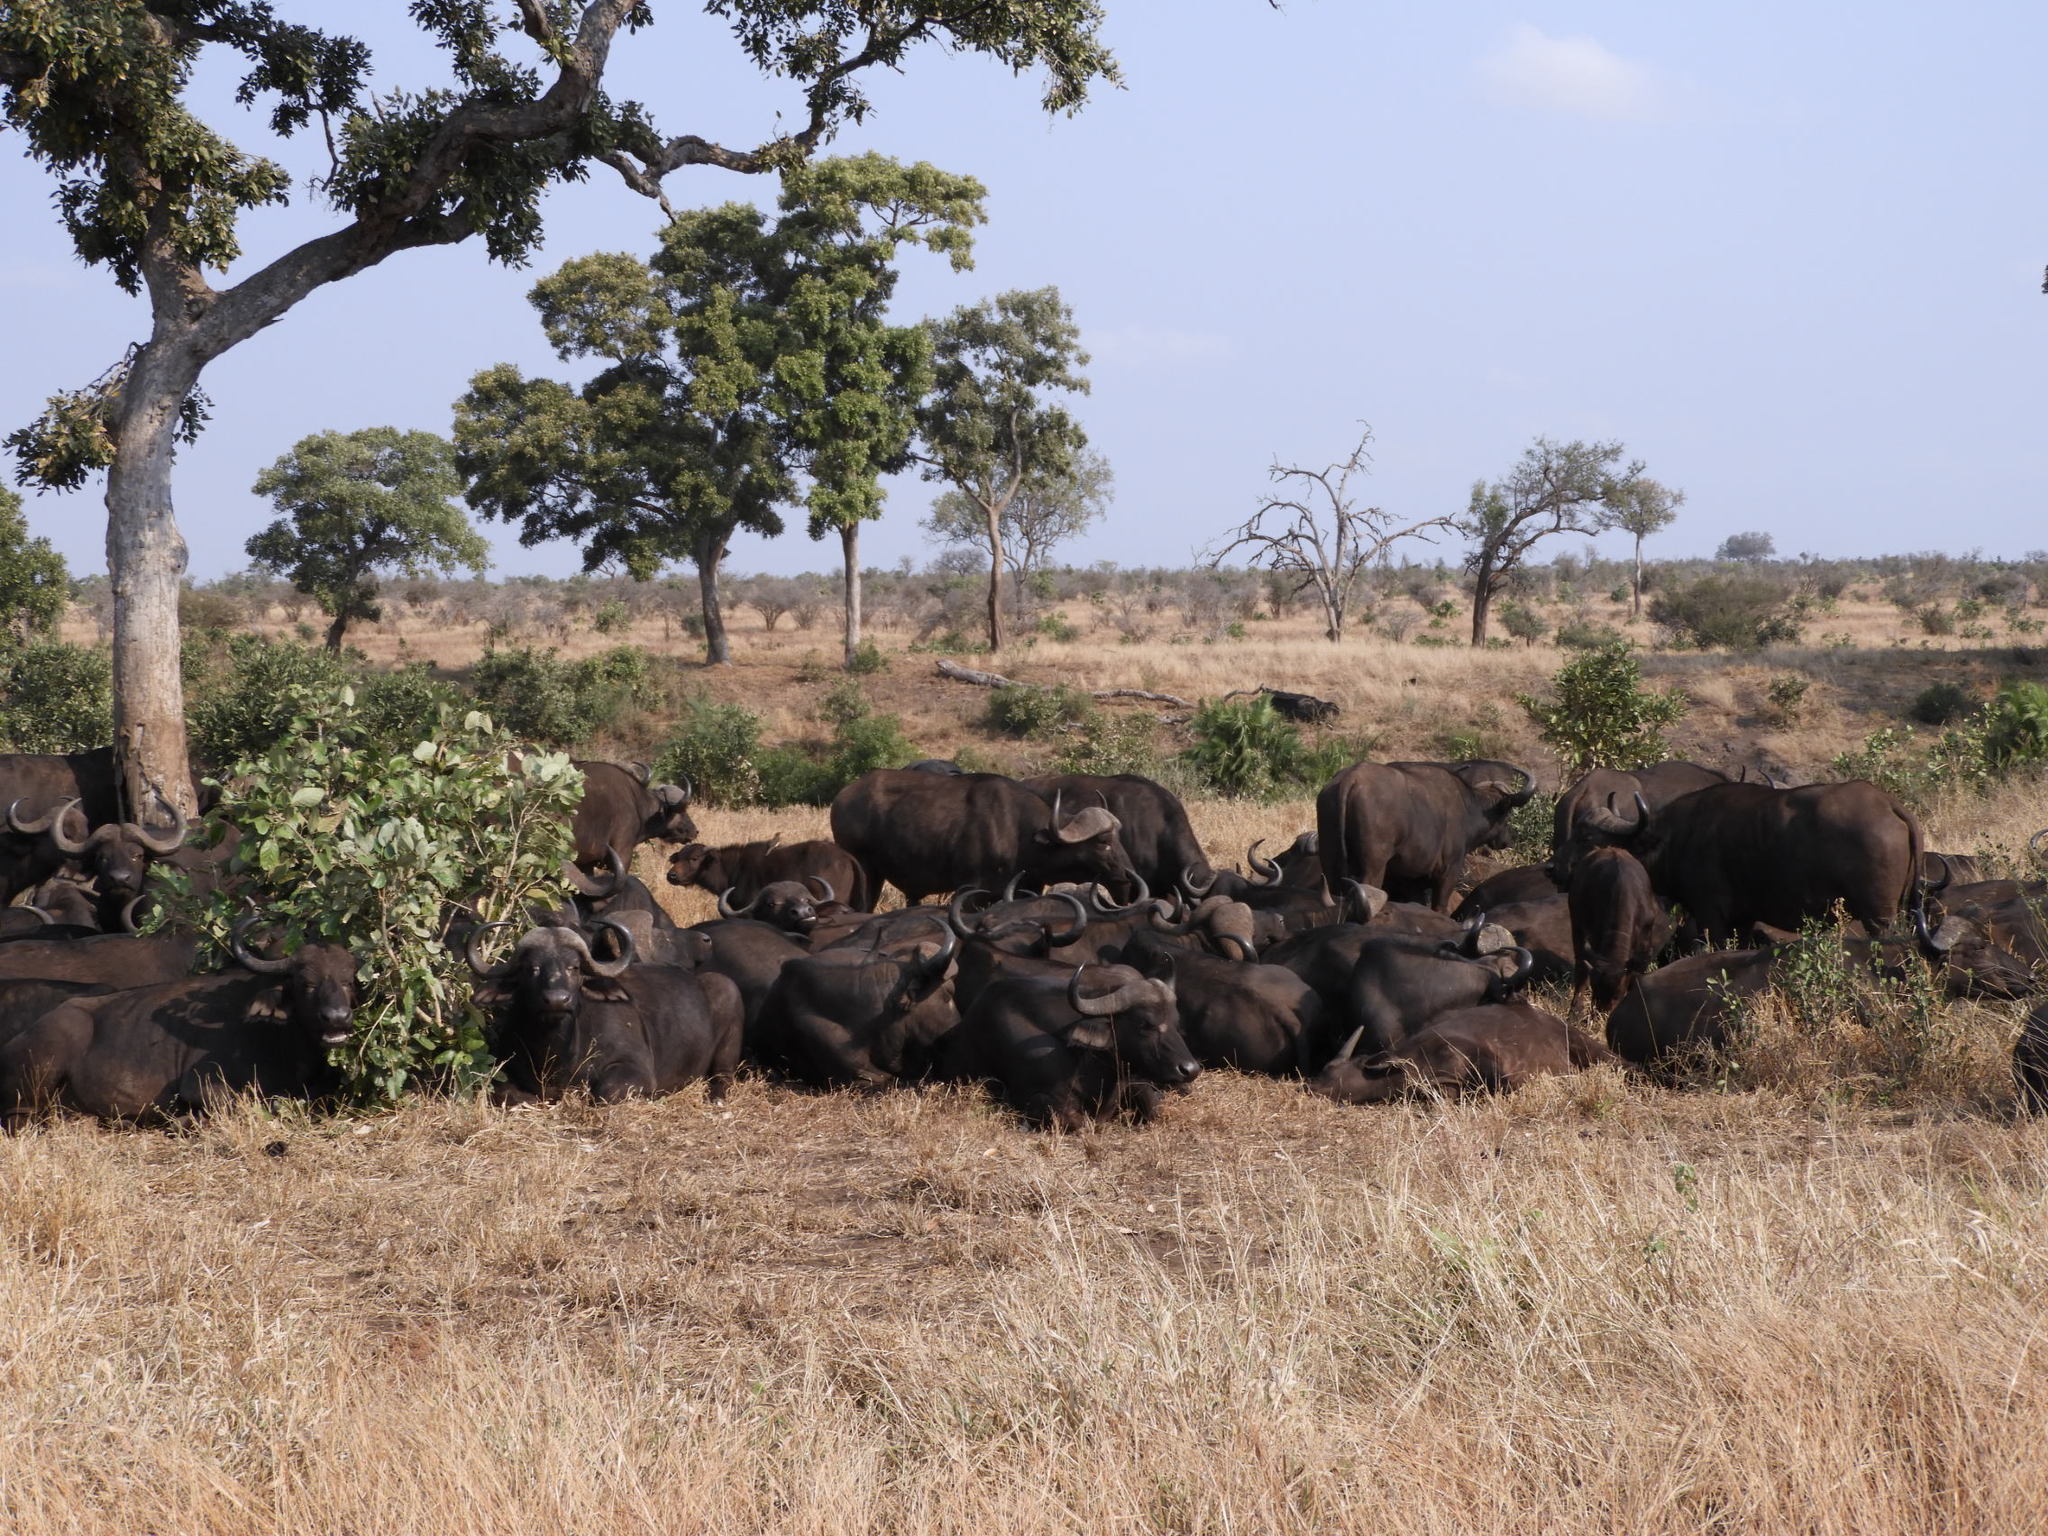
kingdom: Animalia
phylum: Chordata
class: Mammalia
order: Artiodactyla
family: Bovidae
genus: Syncerus
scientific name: Syncerus caffer
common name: African buffalo
